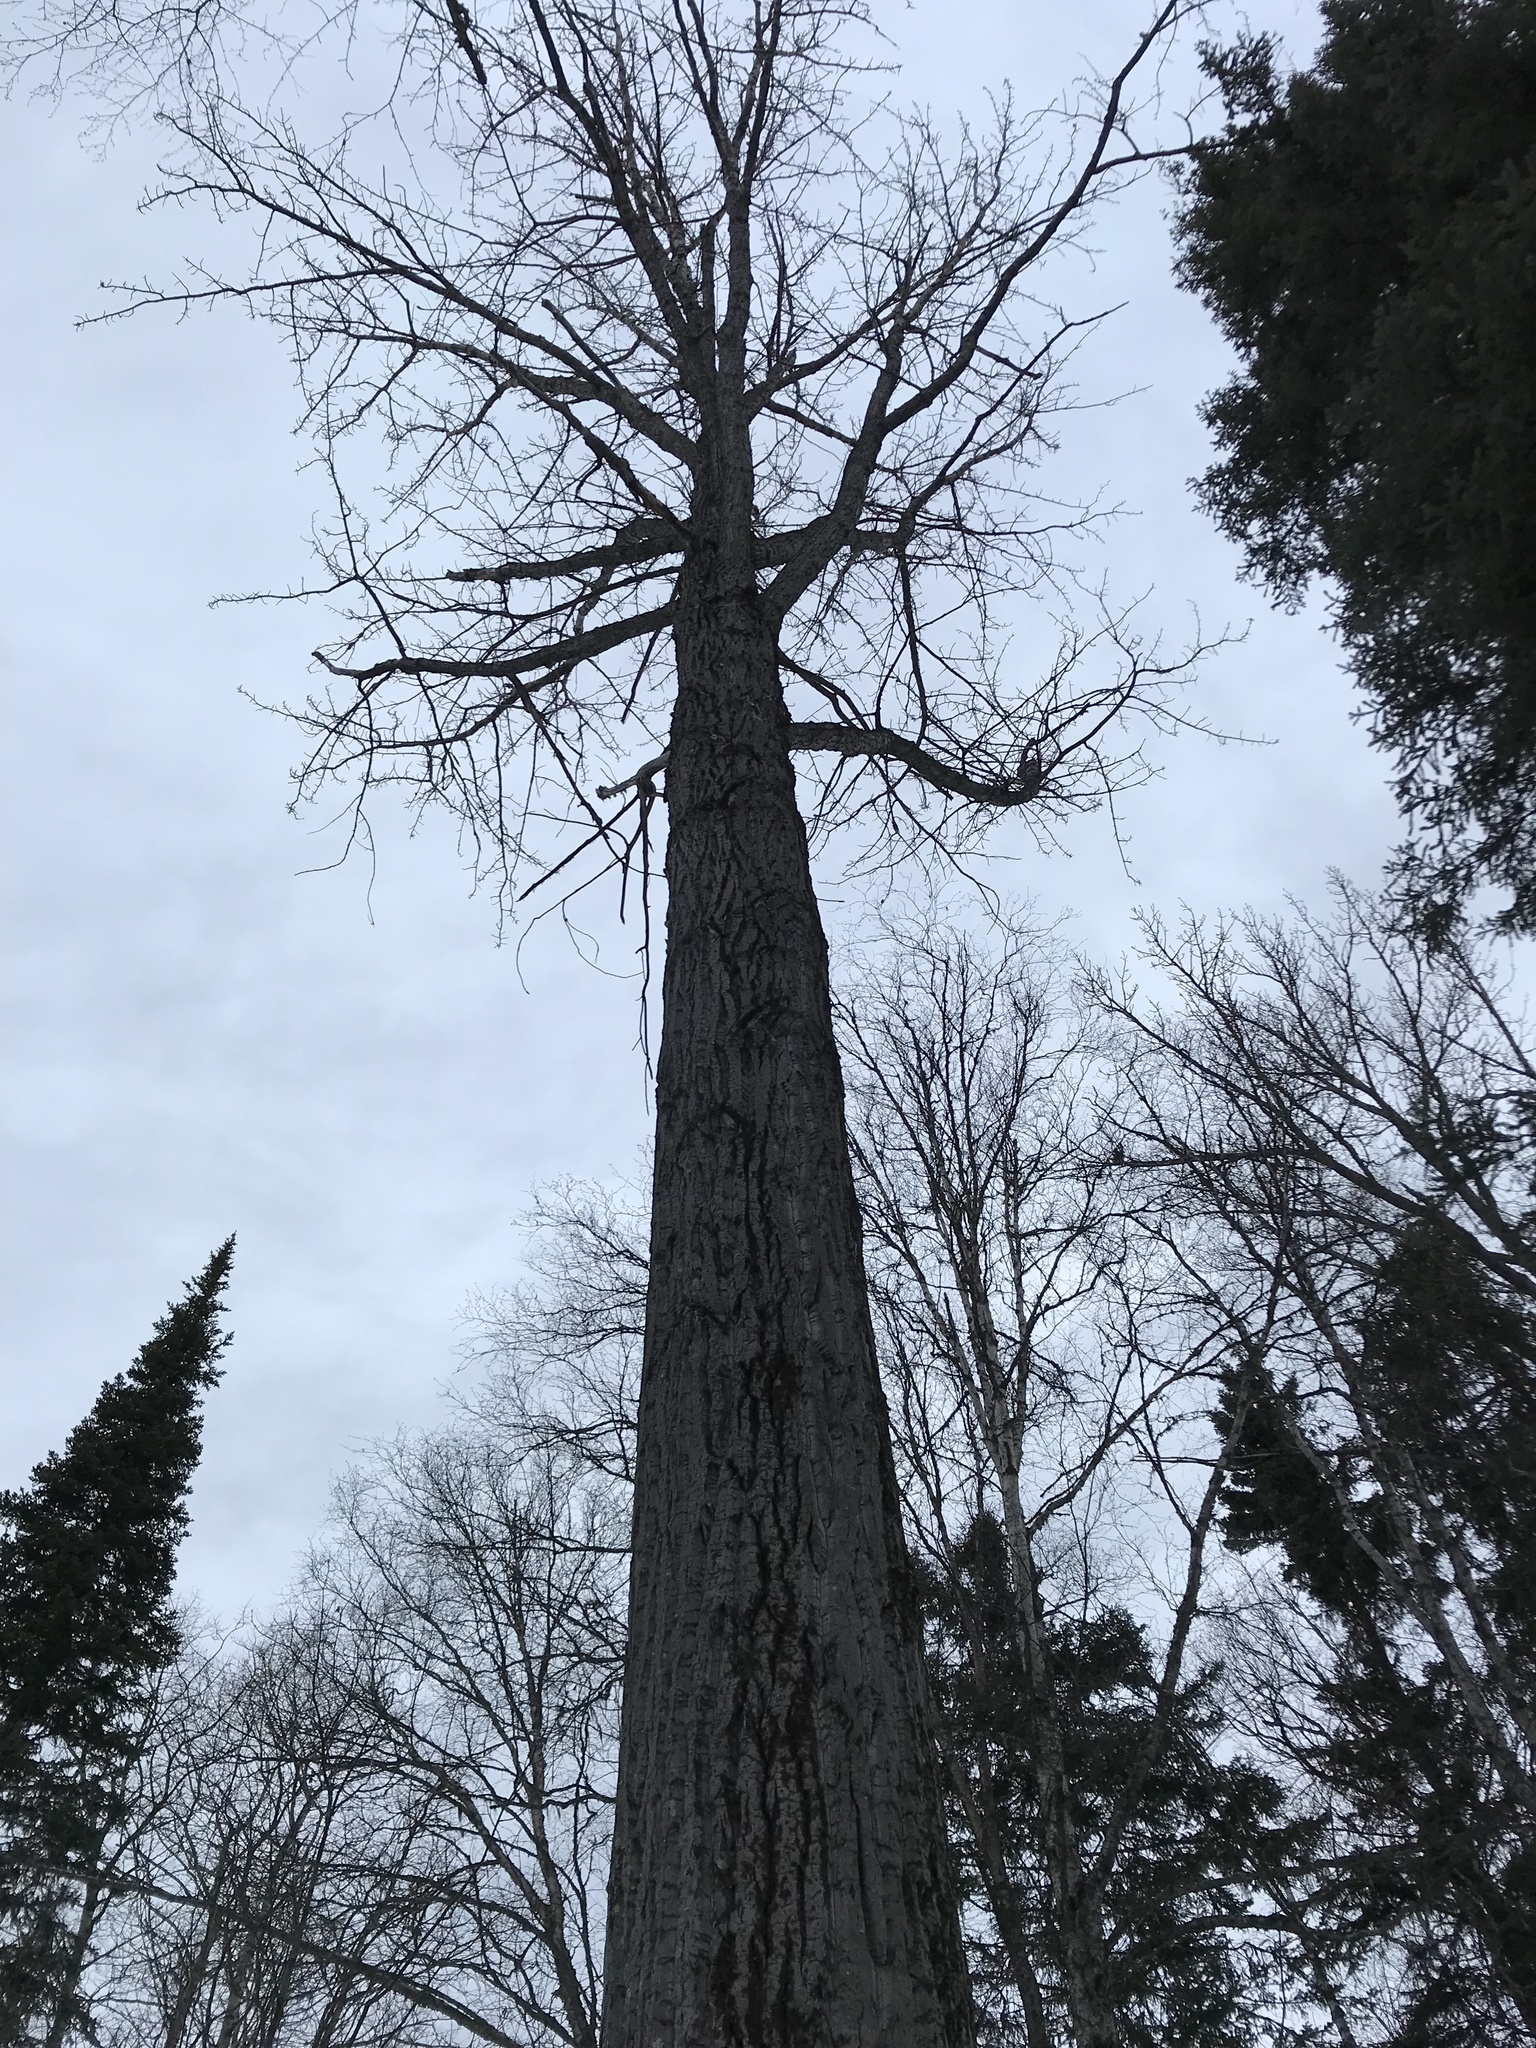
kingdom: Plantae
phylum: Tracheophyta
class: Magnoliopsida
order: Malpighiales
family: Salicaceae
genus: Populus
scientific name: Populus trichocarpa
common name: Black cottonwood
